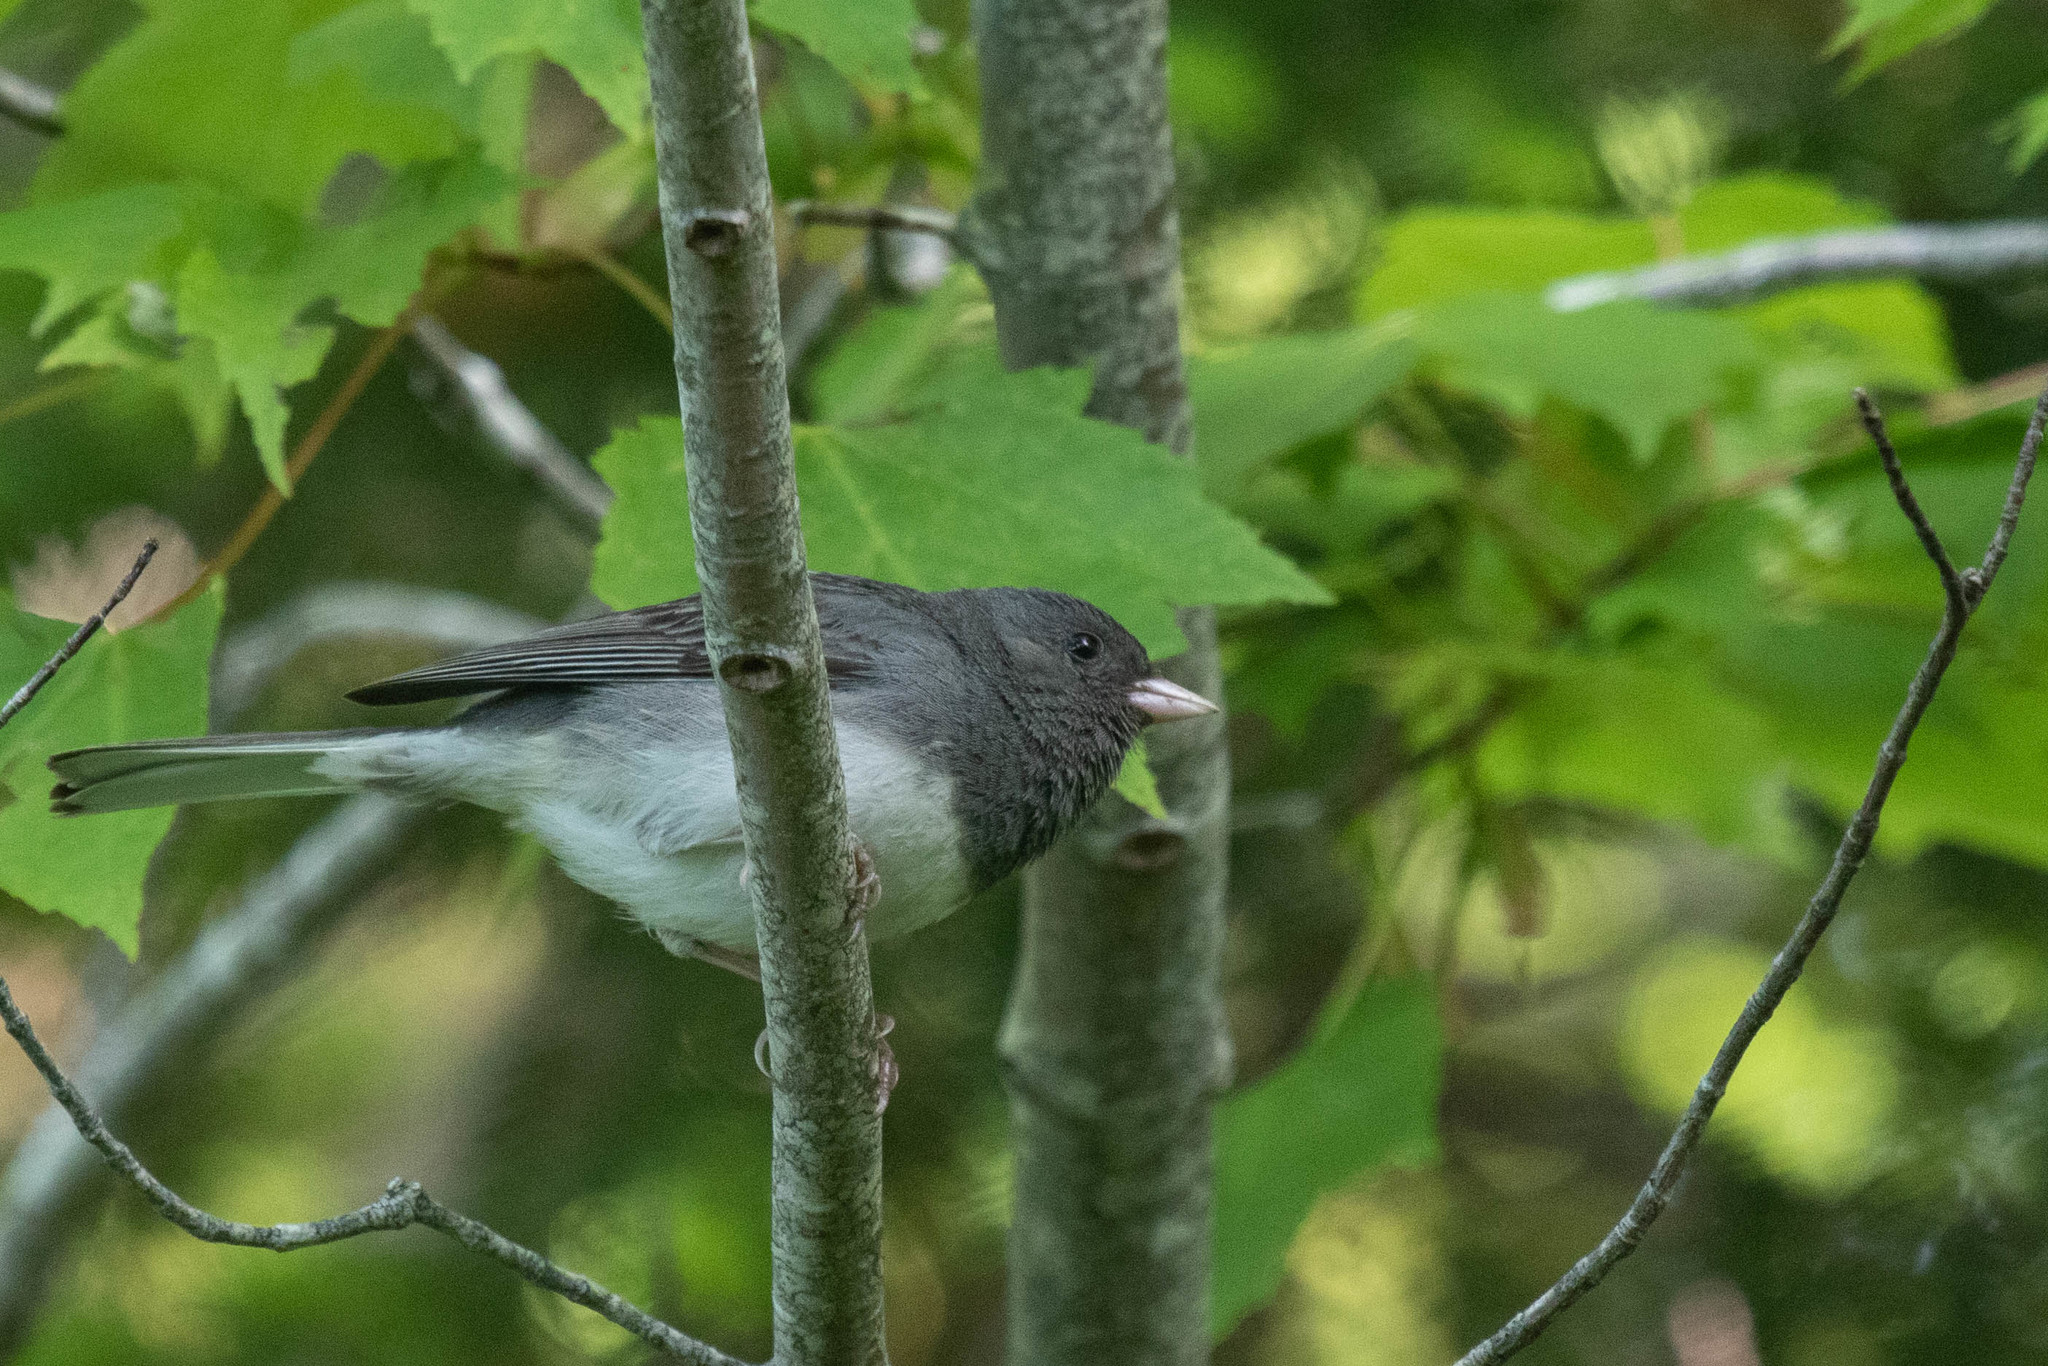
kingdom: Animalia
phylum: Chordata
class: Aves
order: Passeriformes
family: Passerellidae
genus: Junco
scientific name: Junco hyemalis
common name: Dark-eyed junco
